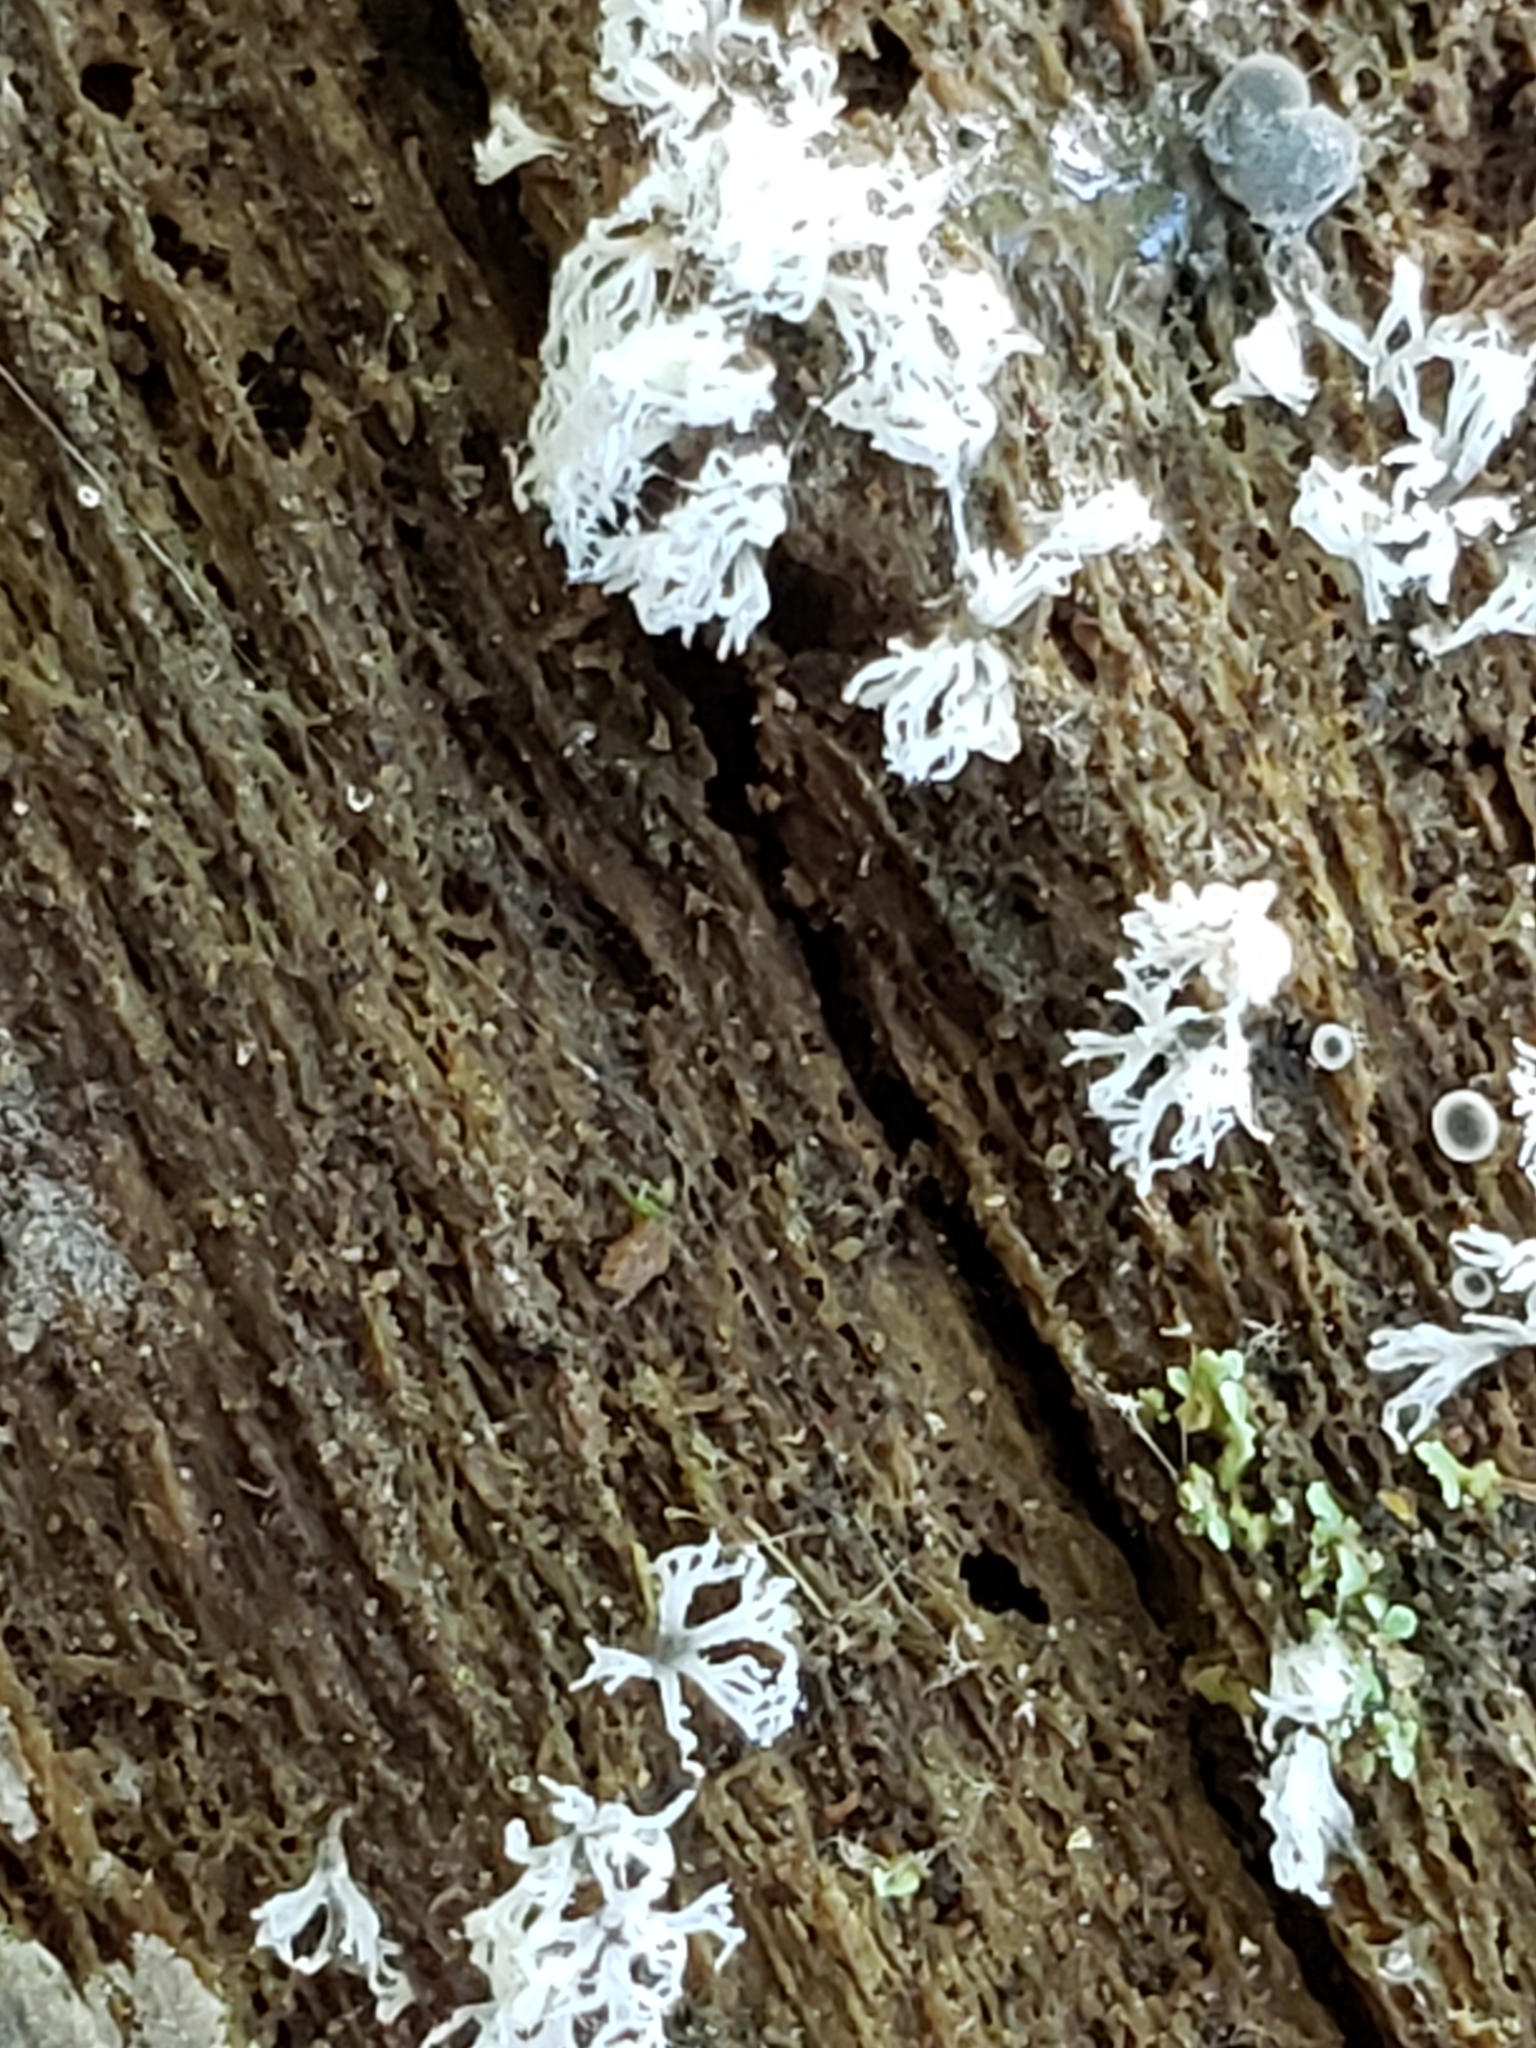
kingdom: Protozoa
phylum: Mycetozoa
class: Protosteliomycetes
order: Ceratiomyxales
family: Ceratiomyxaceae
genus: Ceratiomyxa
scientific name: Ceratiomyxa fruticulosa
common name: Honeycomb coral slime mold
